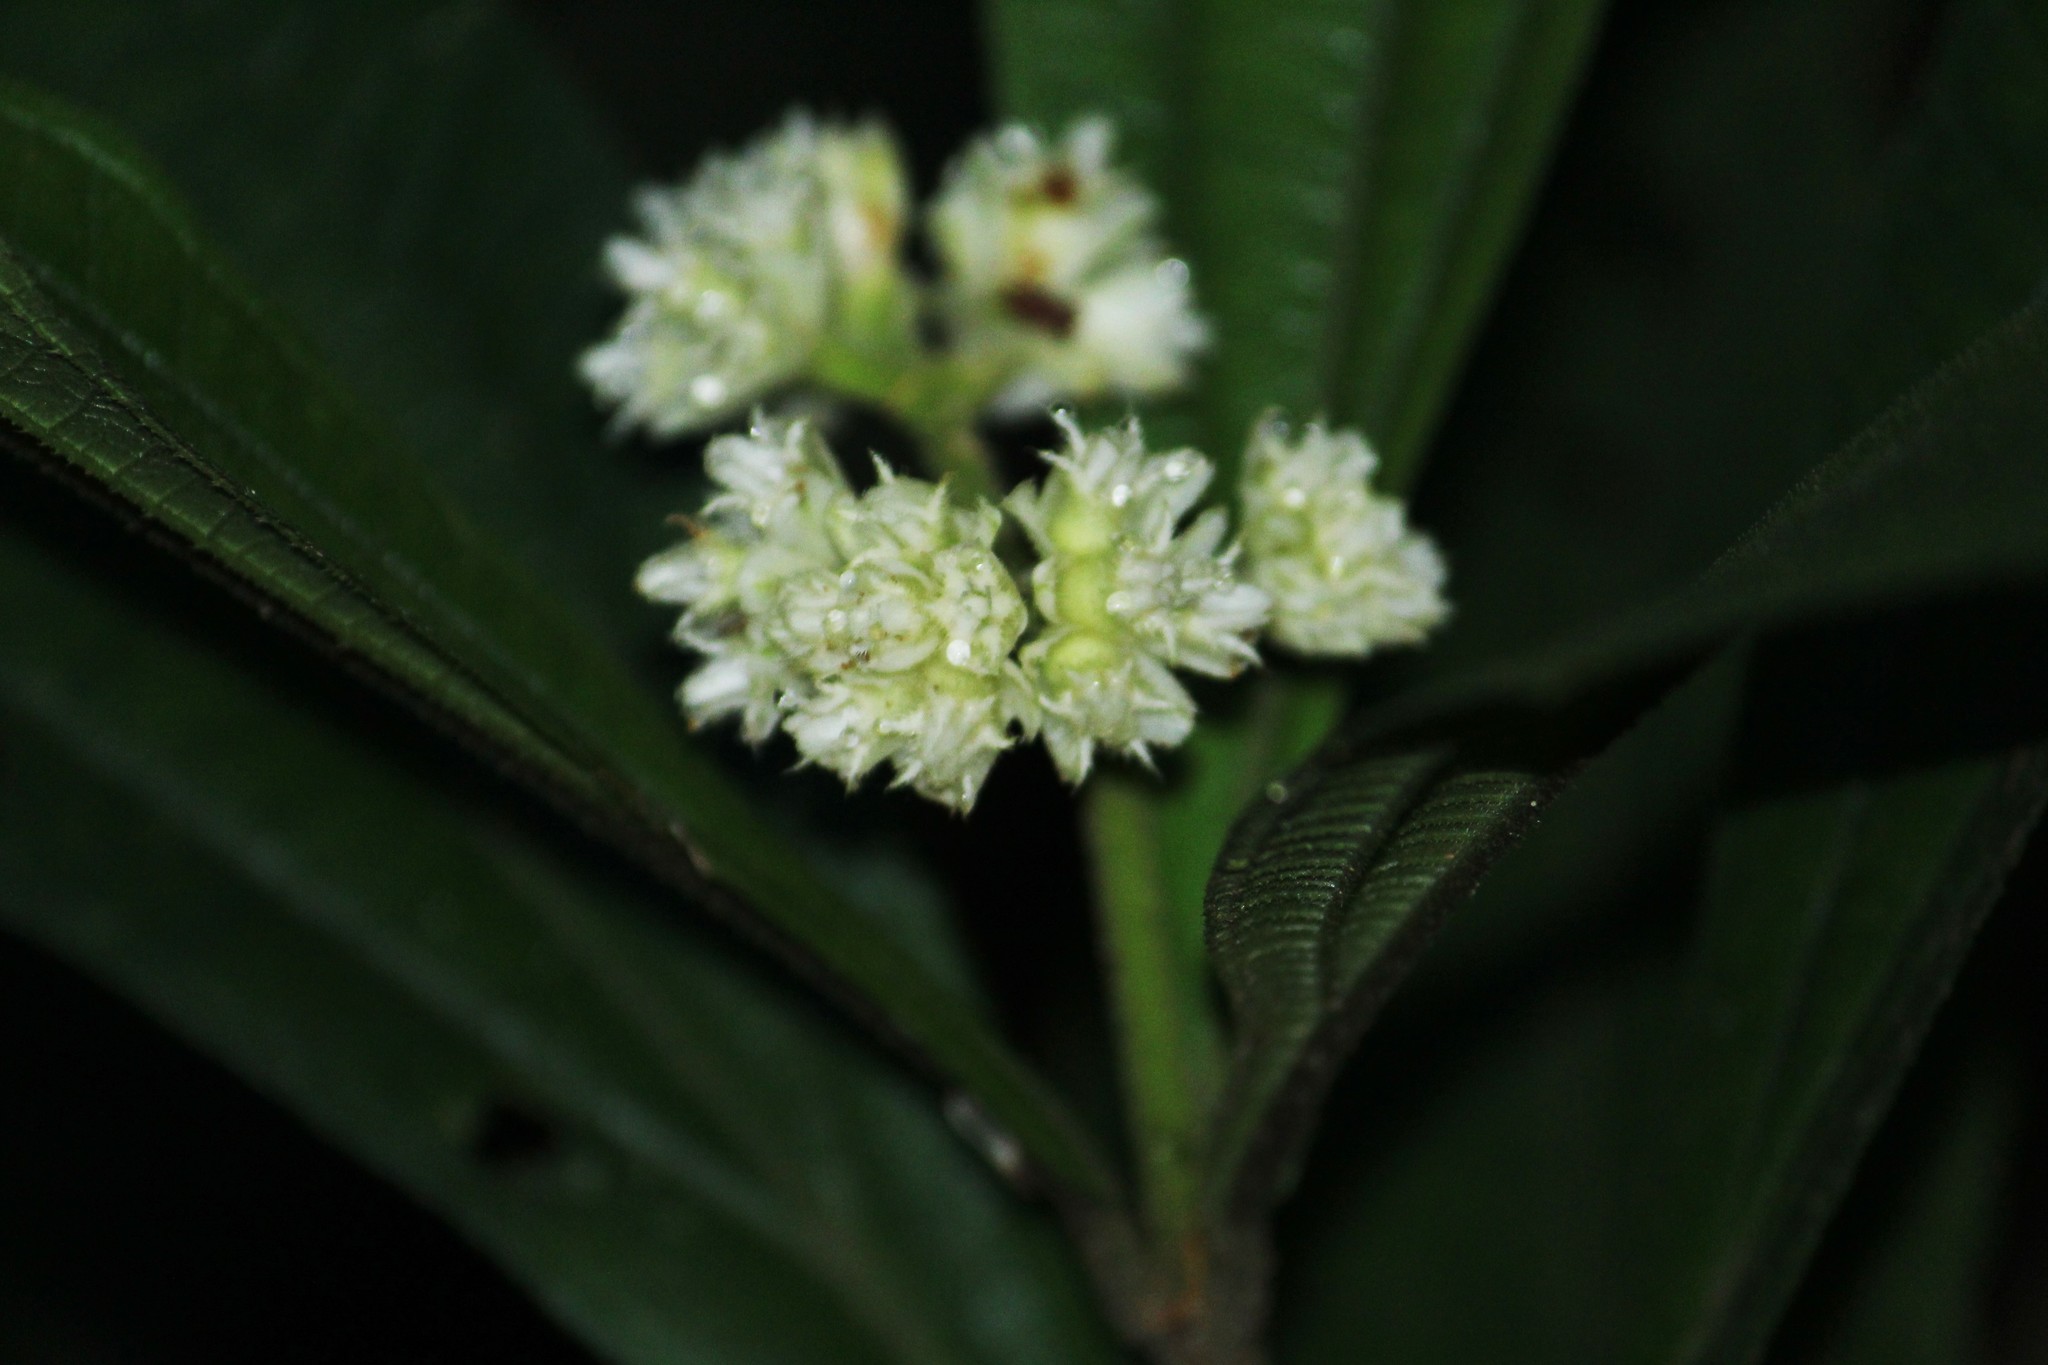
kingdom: Plantae
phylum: Tracheophyta
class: Magnoliopsida
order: Myrtales
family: Melastomataceae
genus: Miconia
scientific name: Miconia melastomoides
